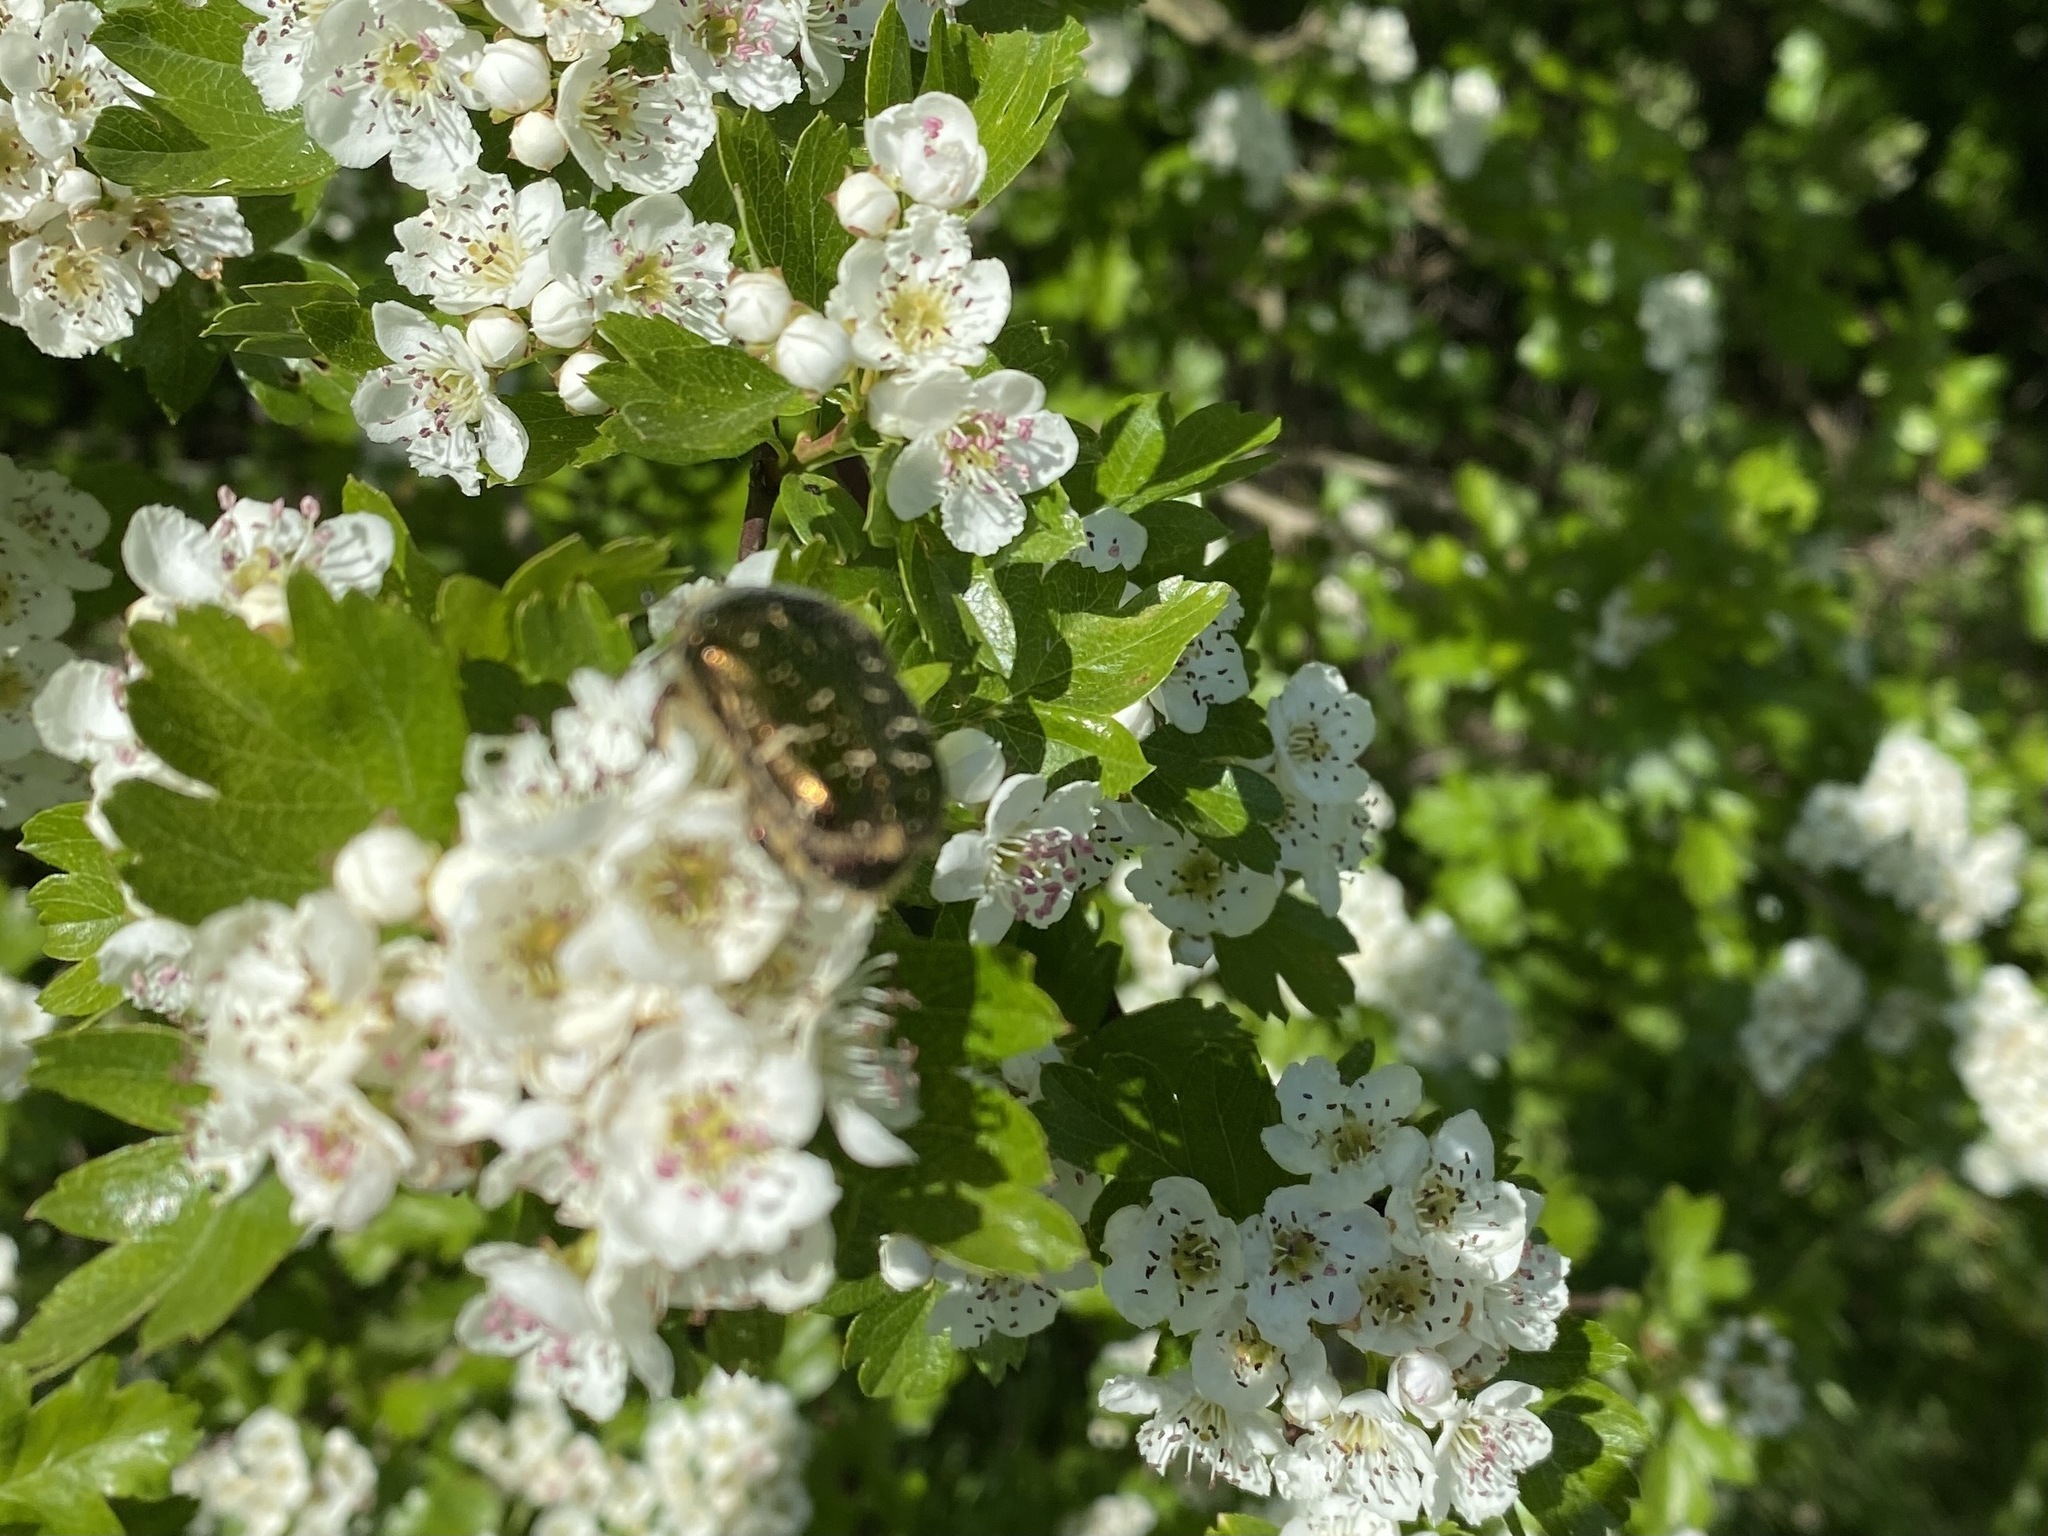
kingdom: Animalia
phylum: Arthropoda
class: Insecta
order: Coleoptera
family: Scarabaeidae
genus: Cetonia
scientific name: Cetonia aurata
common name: Rose chafer
